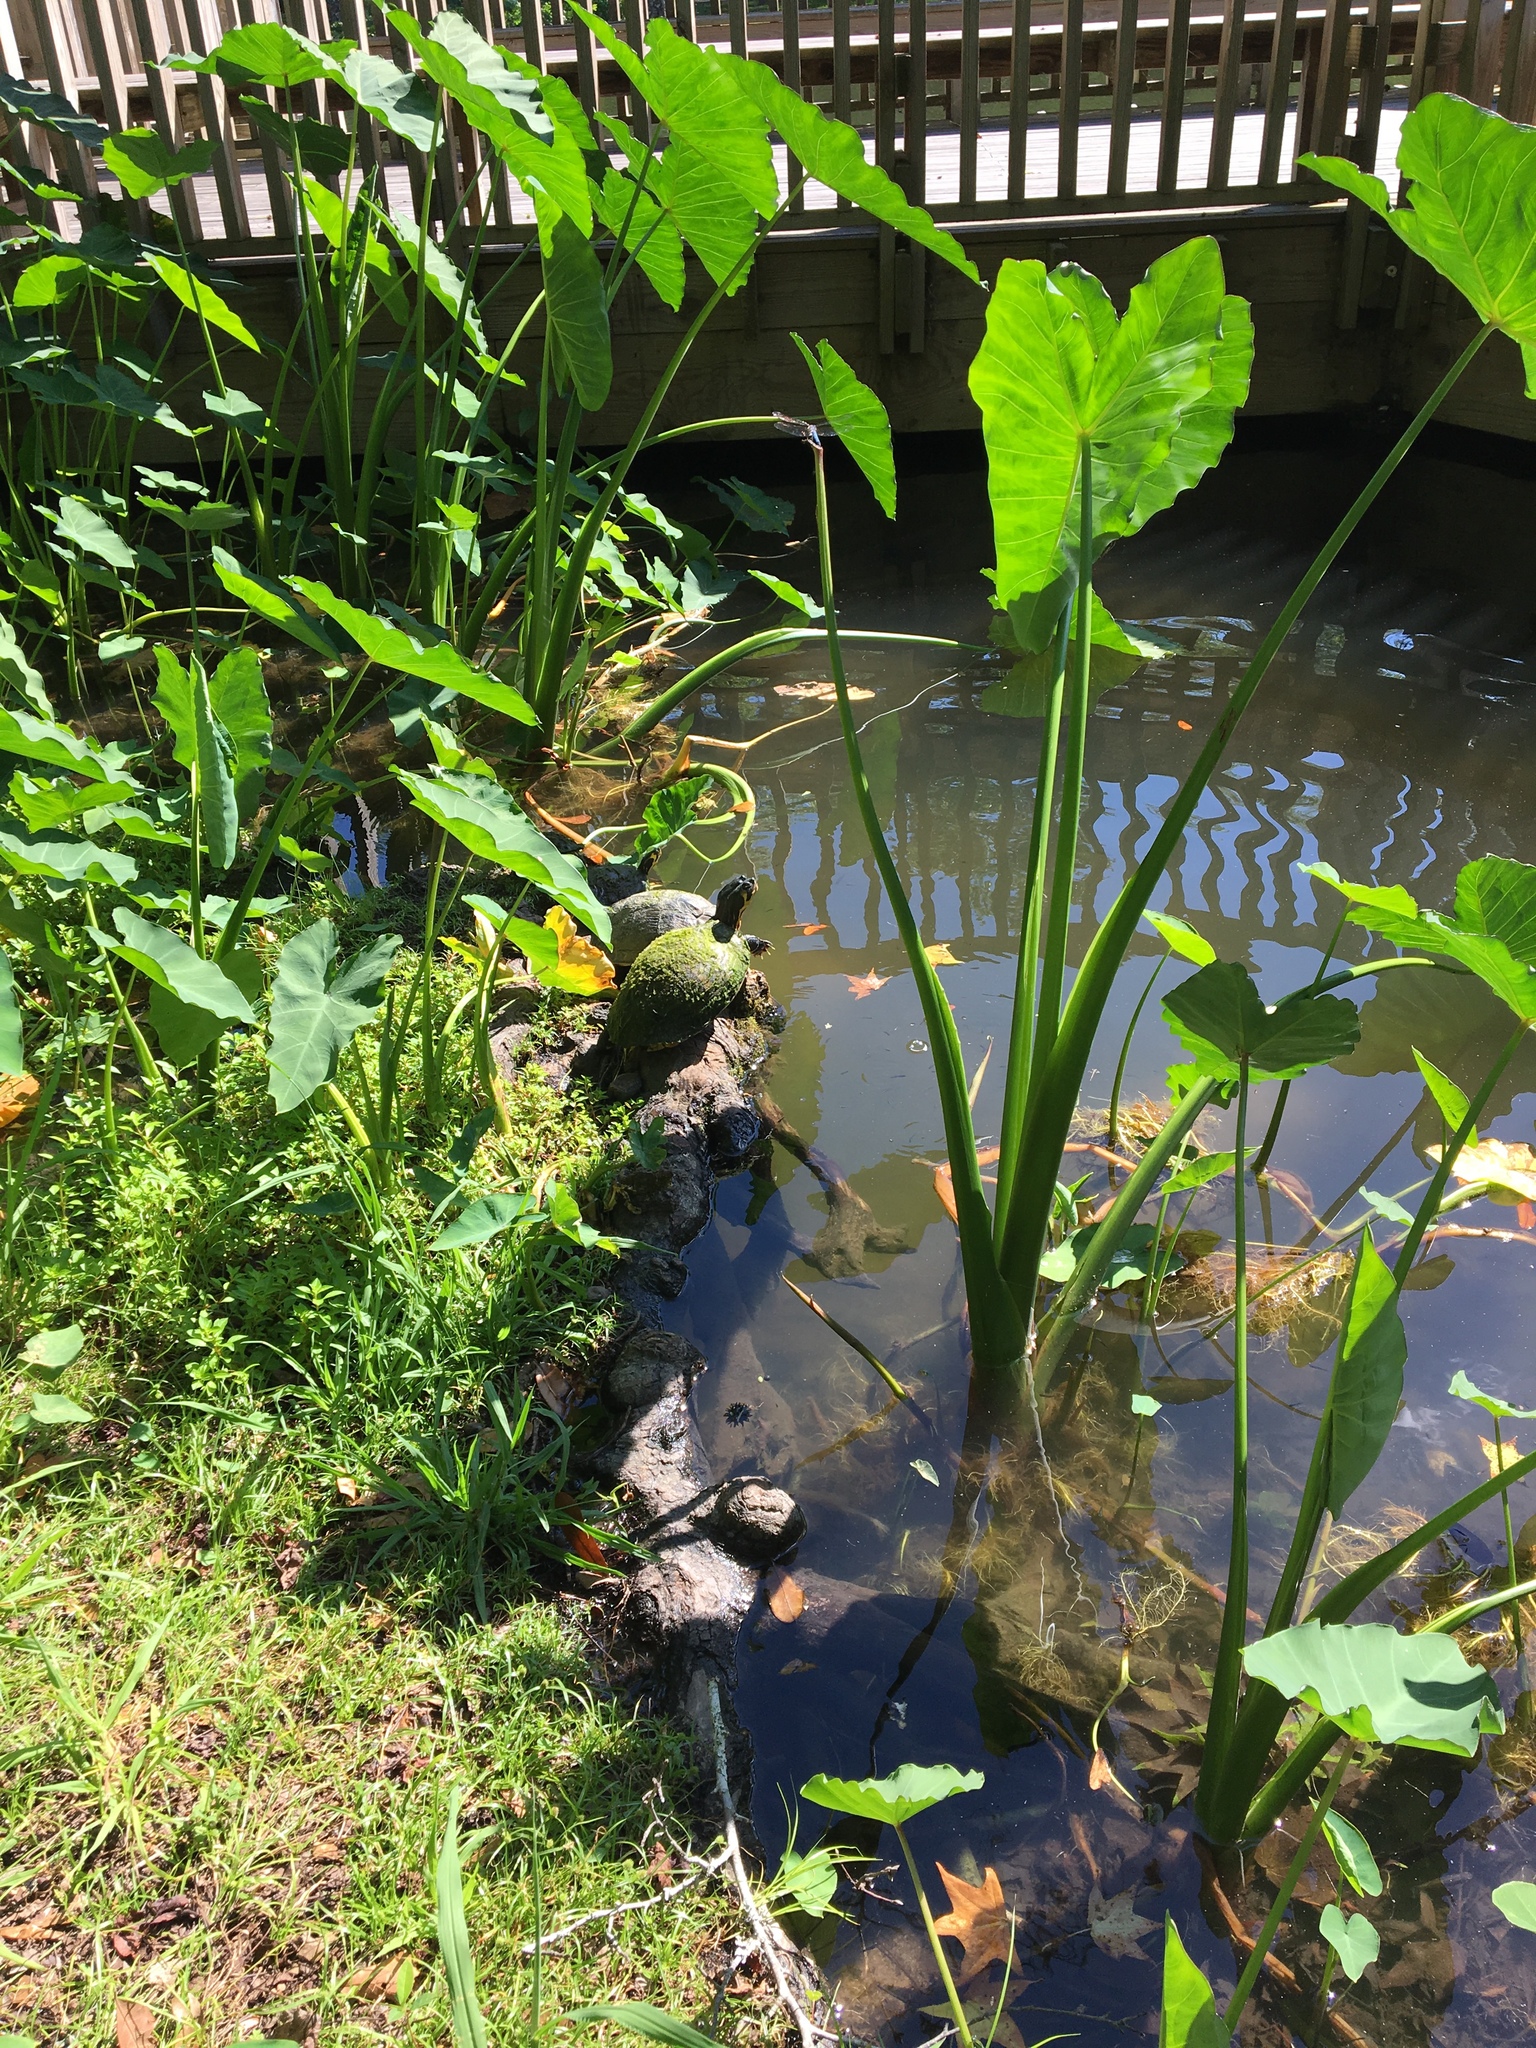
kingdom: Animalia
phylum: Chordata
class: Testudines
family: Emydidae
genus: Trachemys
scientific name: Trachemys scripta
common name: Slider
